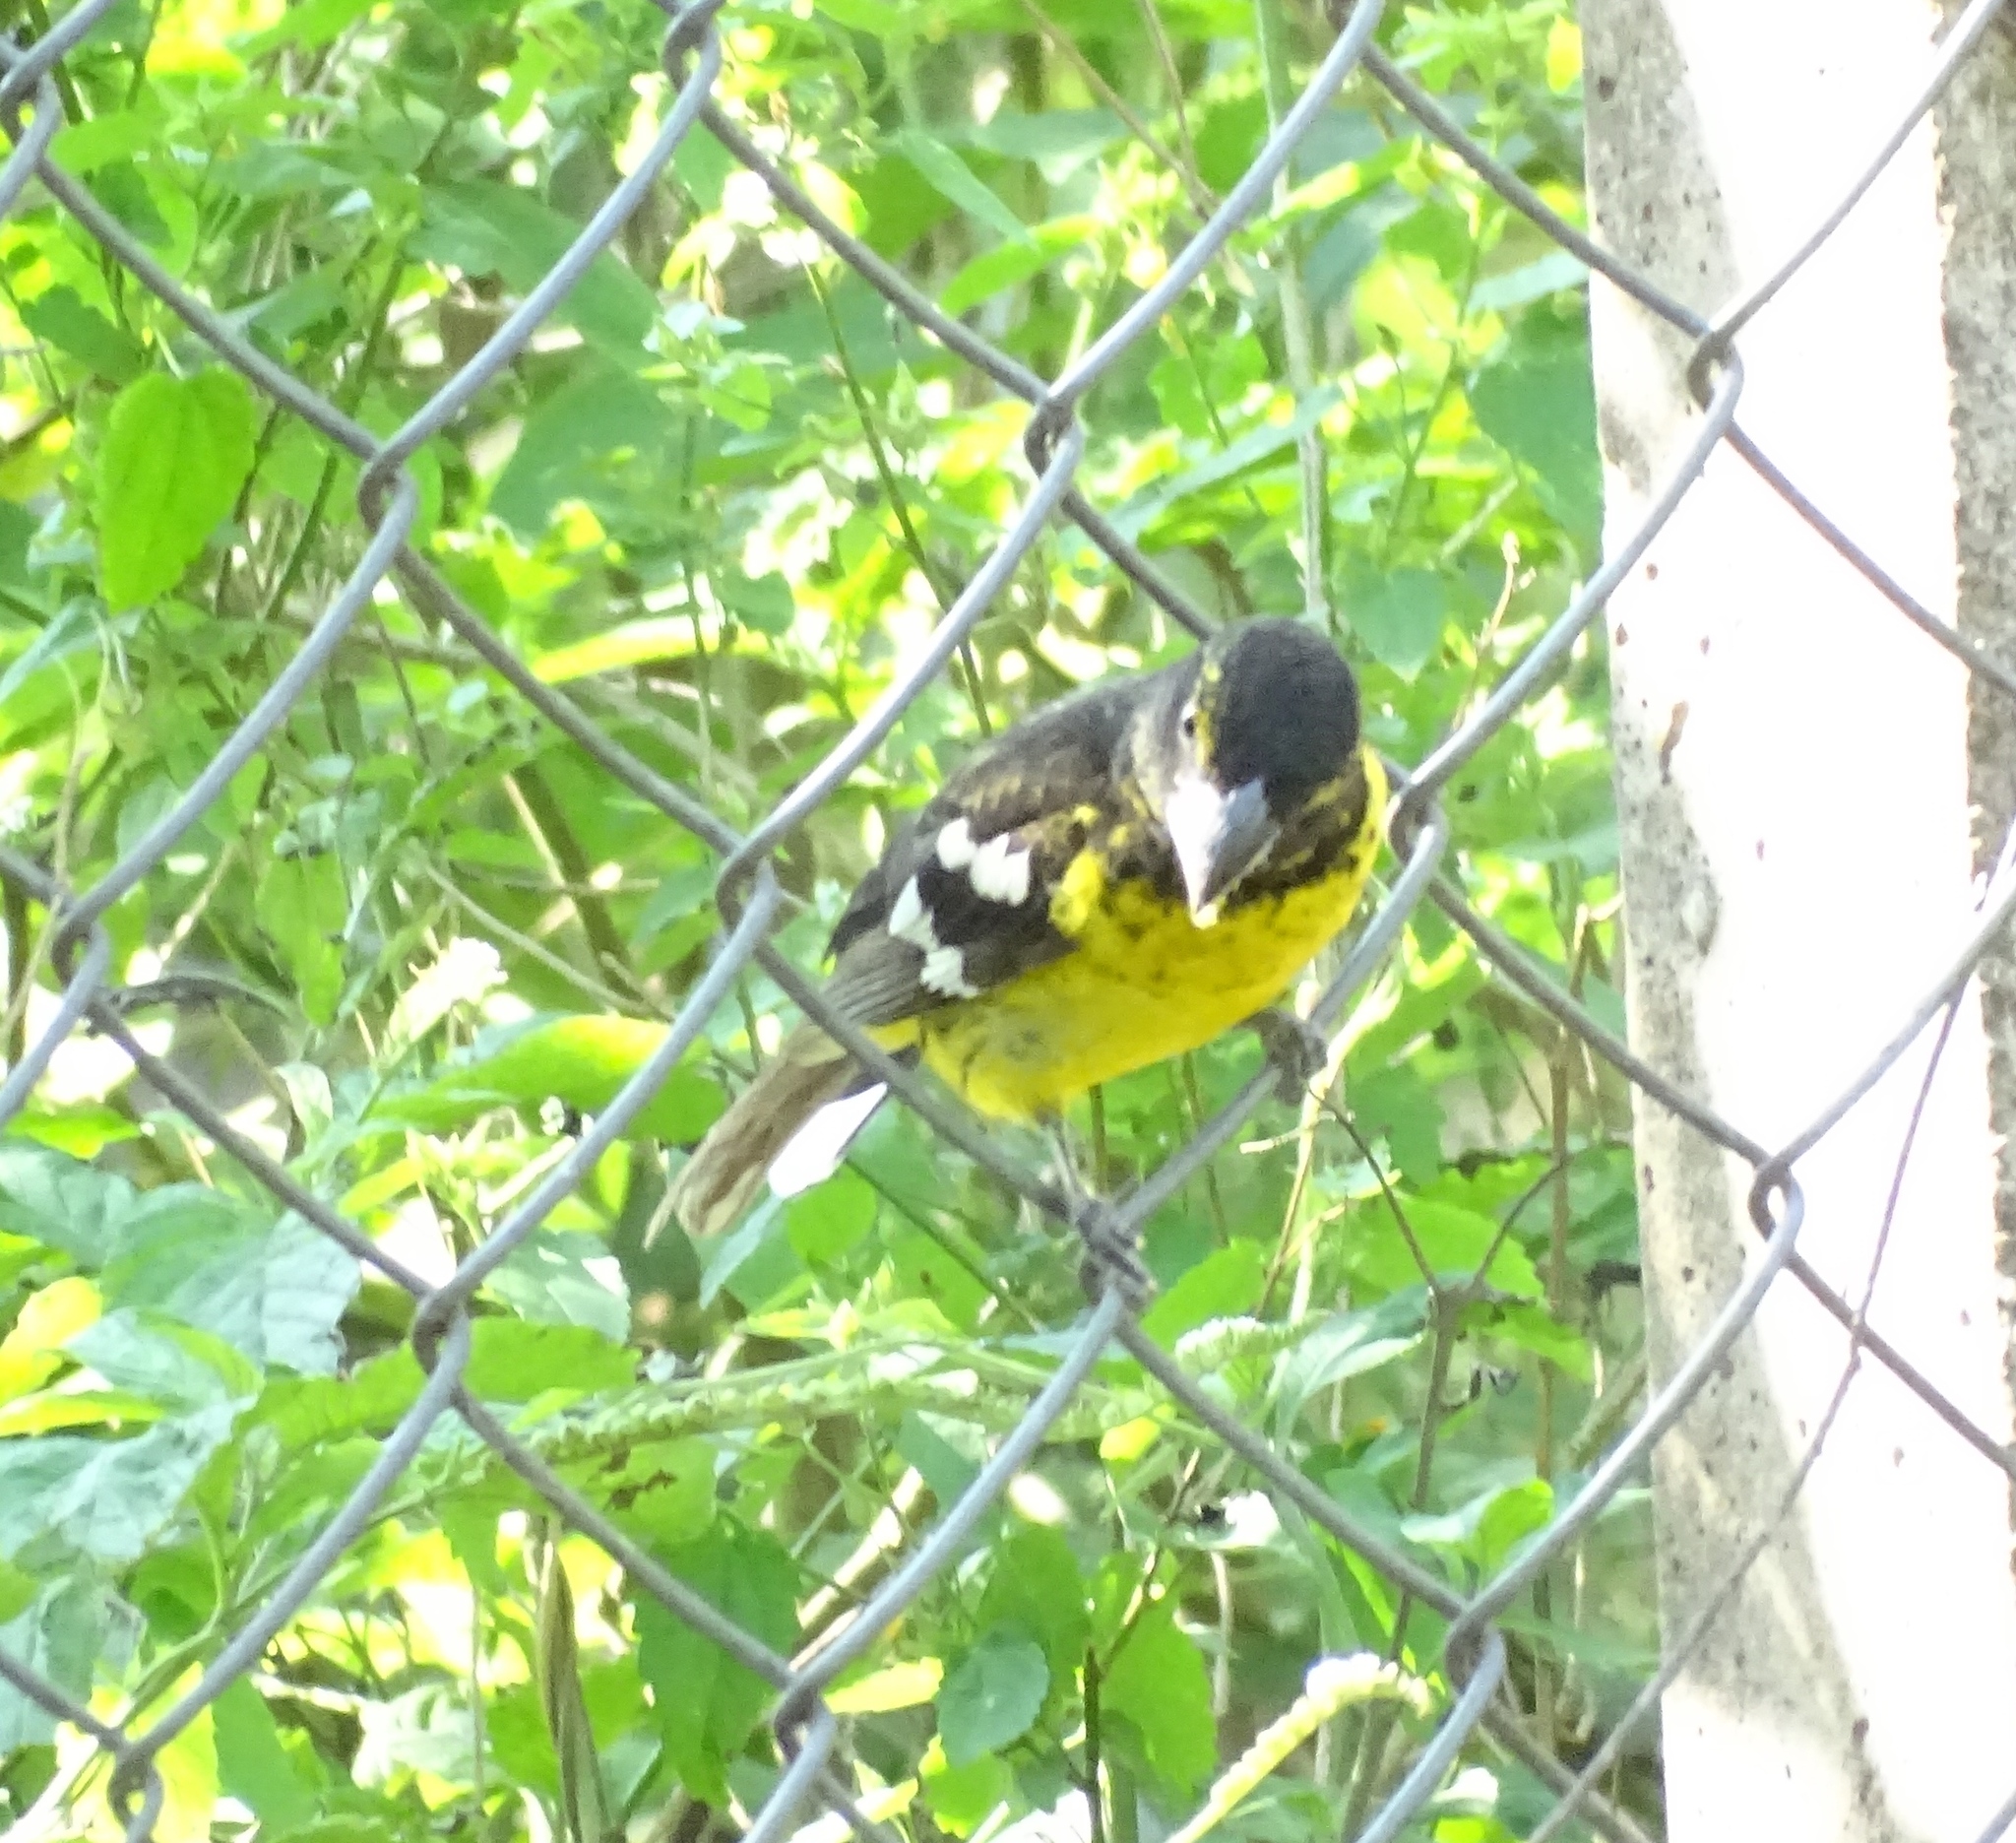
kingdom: Animalia
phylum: Chordata
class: Aves
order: Passeriformes
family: Cardinalidae
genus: Pheucticus
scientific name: Pheucticus aureoventris
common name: Black-backed grosbeak
